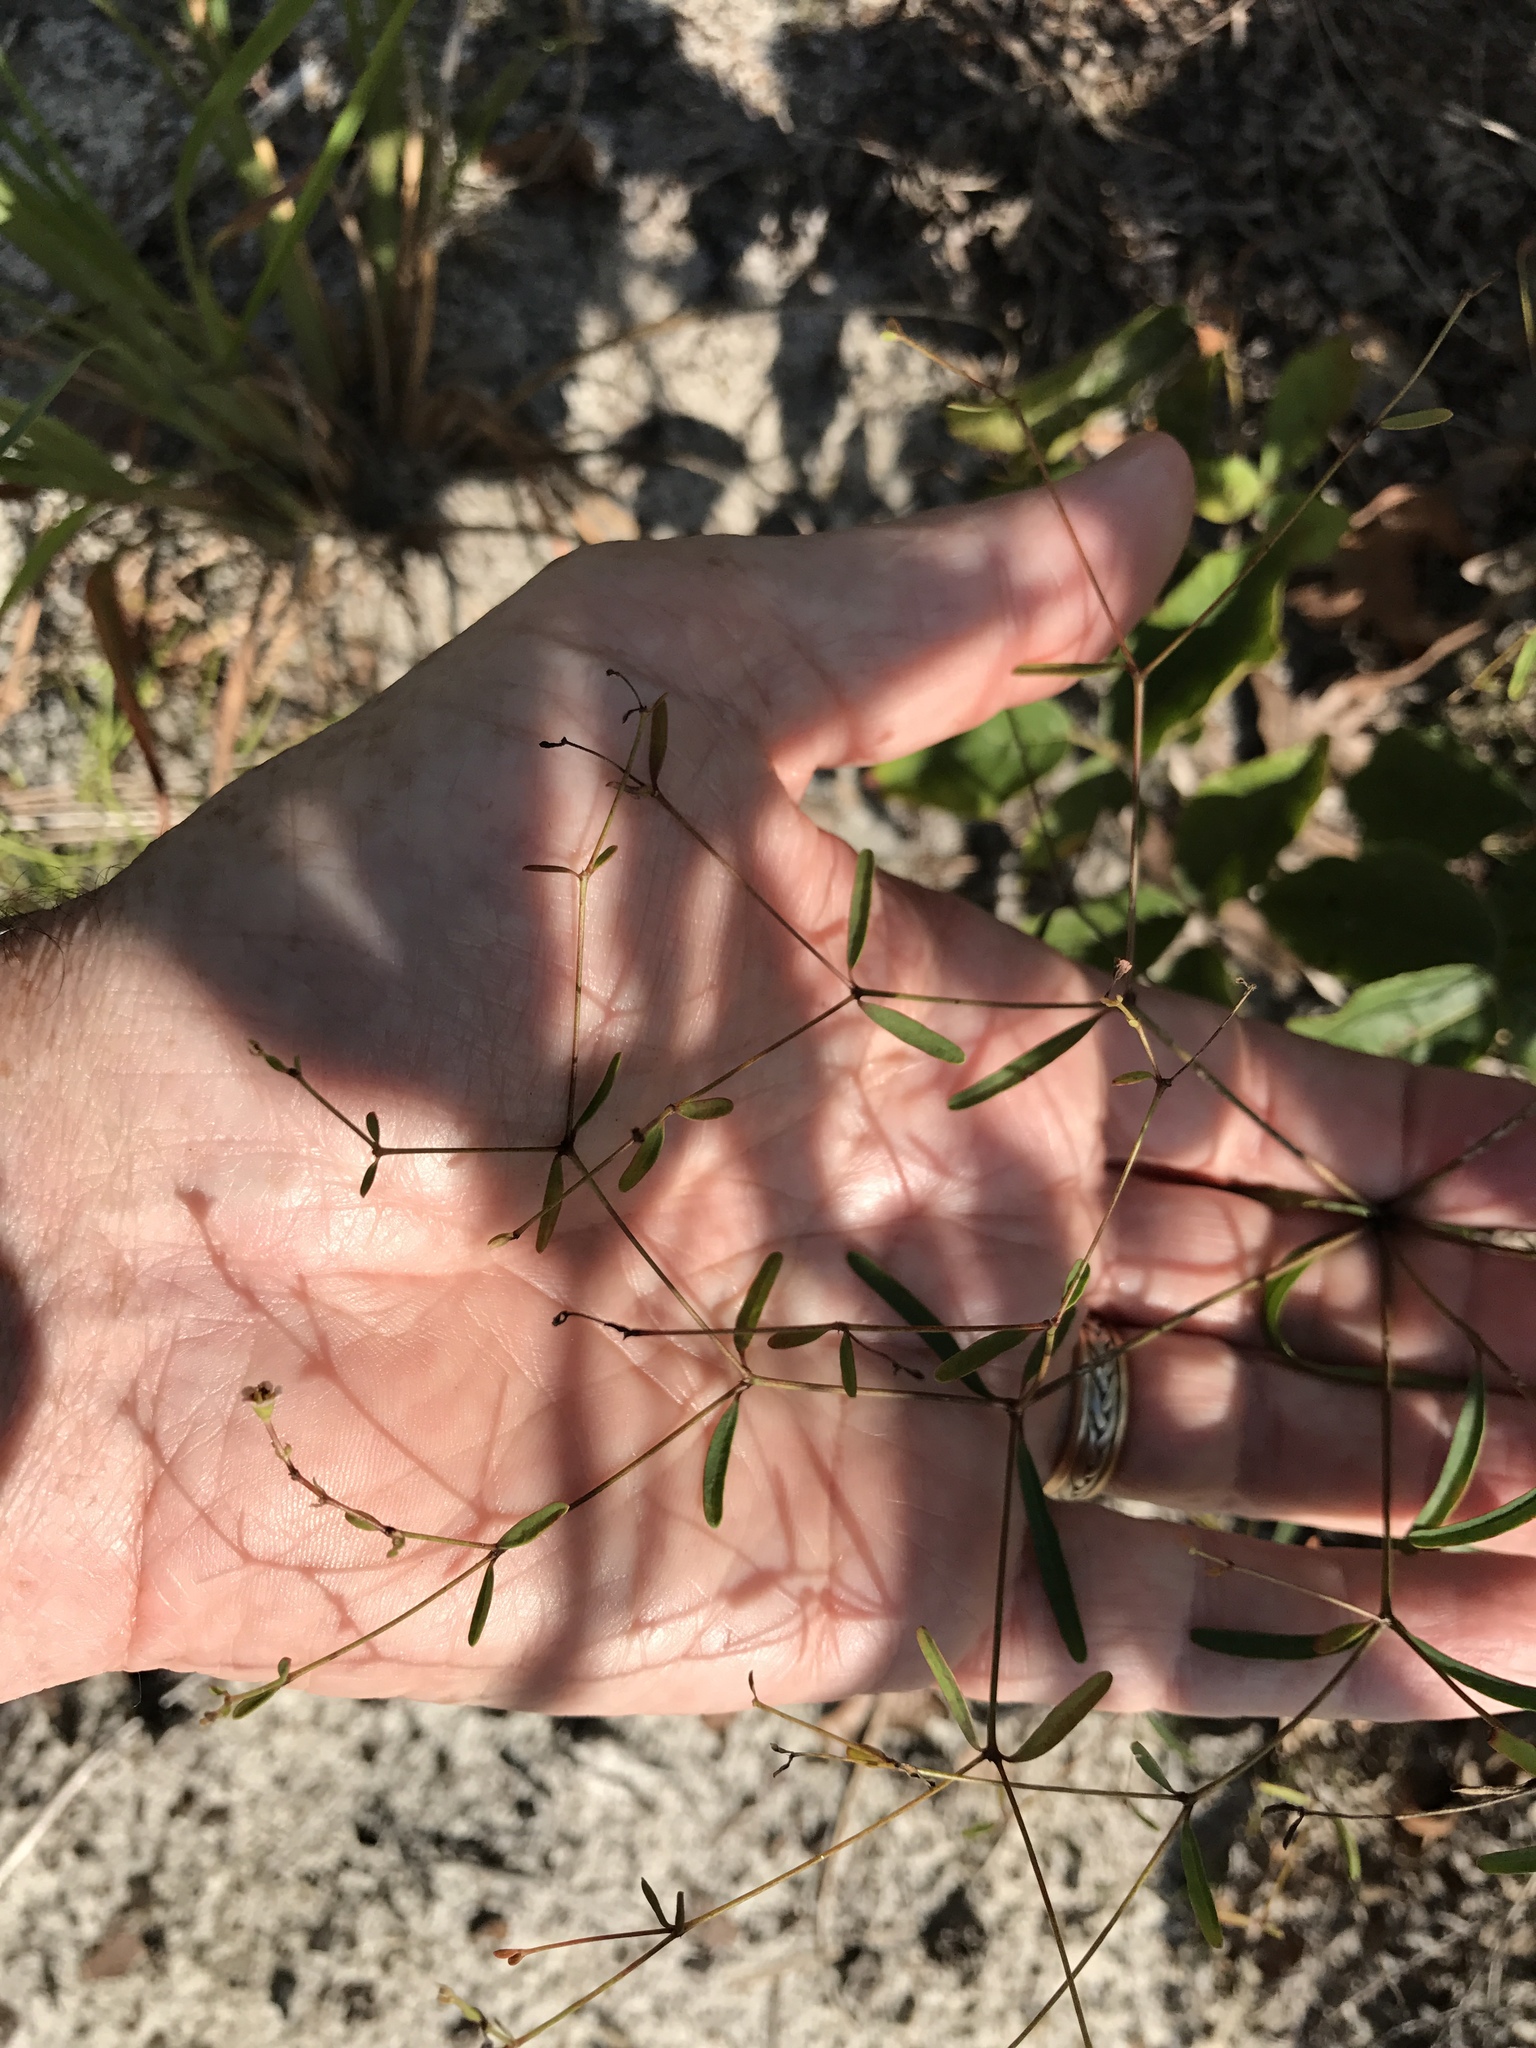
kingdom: Plantae
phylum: Tracheophyta
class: Magnoliopsida
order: Malpighiales
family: Euphorbiaceae
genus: Euphorbia
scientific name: Euphorbia curtisii
